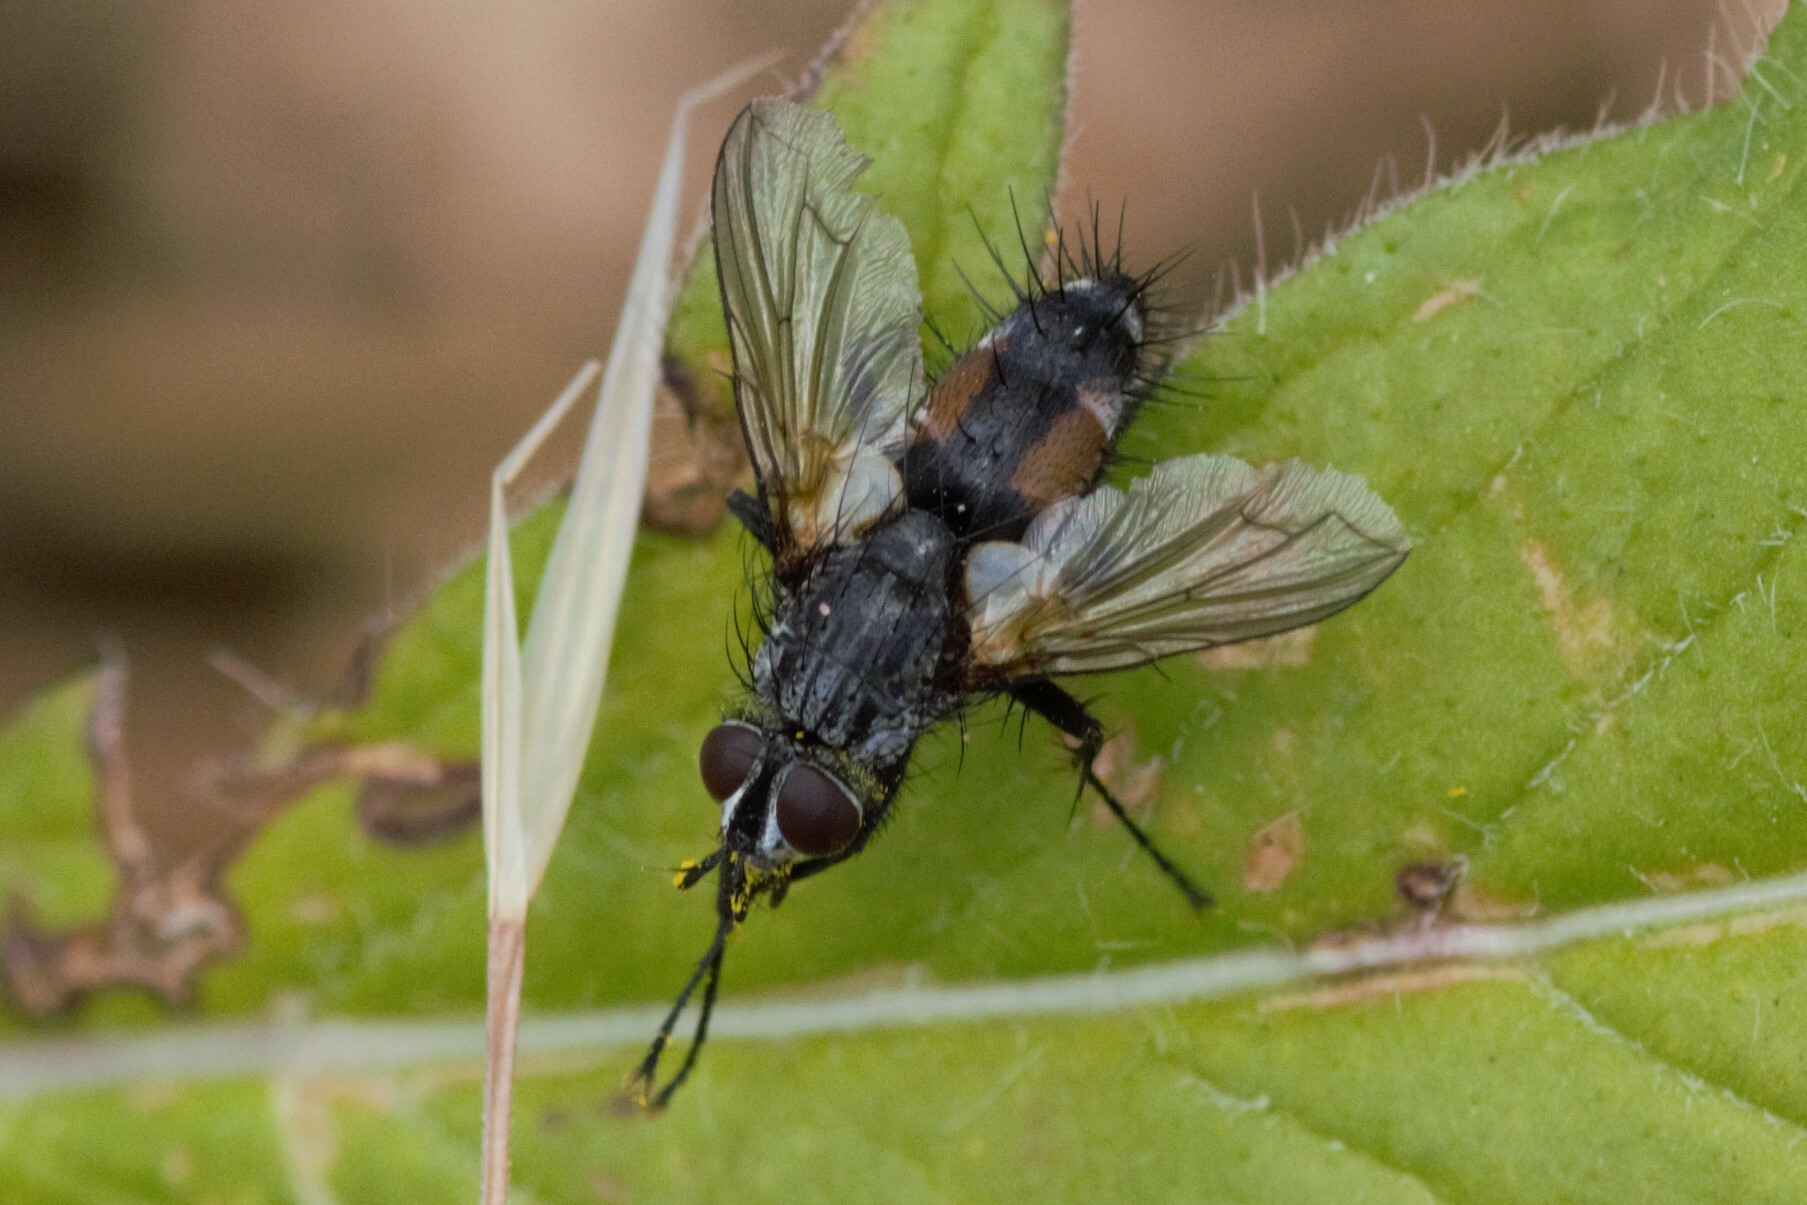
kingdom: Animalia
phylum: Arthropoda
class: Insecta
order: Diptera
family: Tachinidae
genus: Eriothrix
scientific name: Eriothrix rufomaculatus
